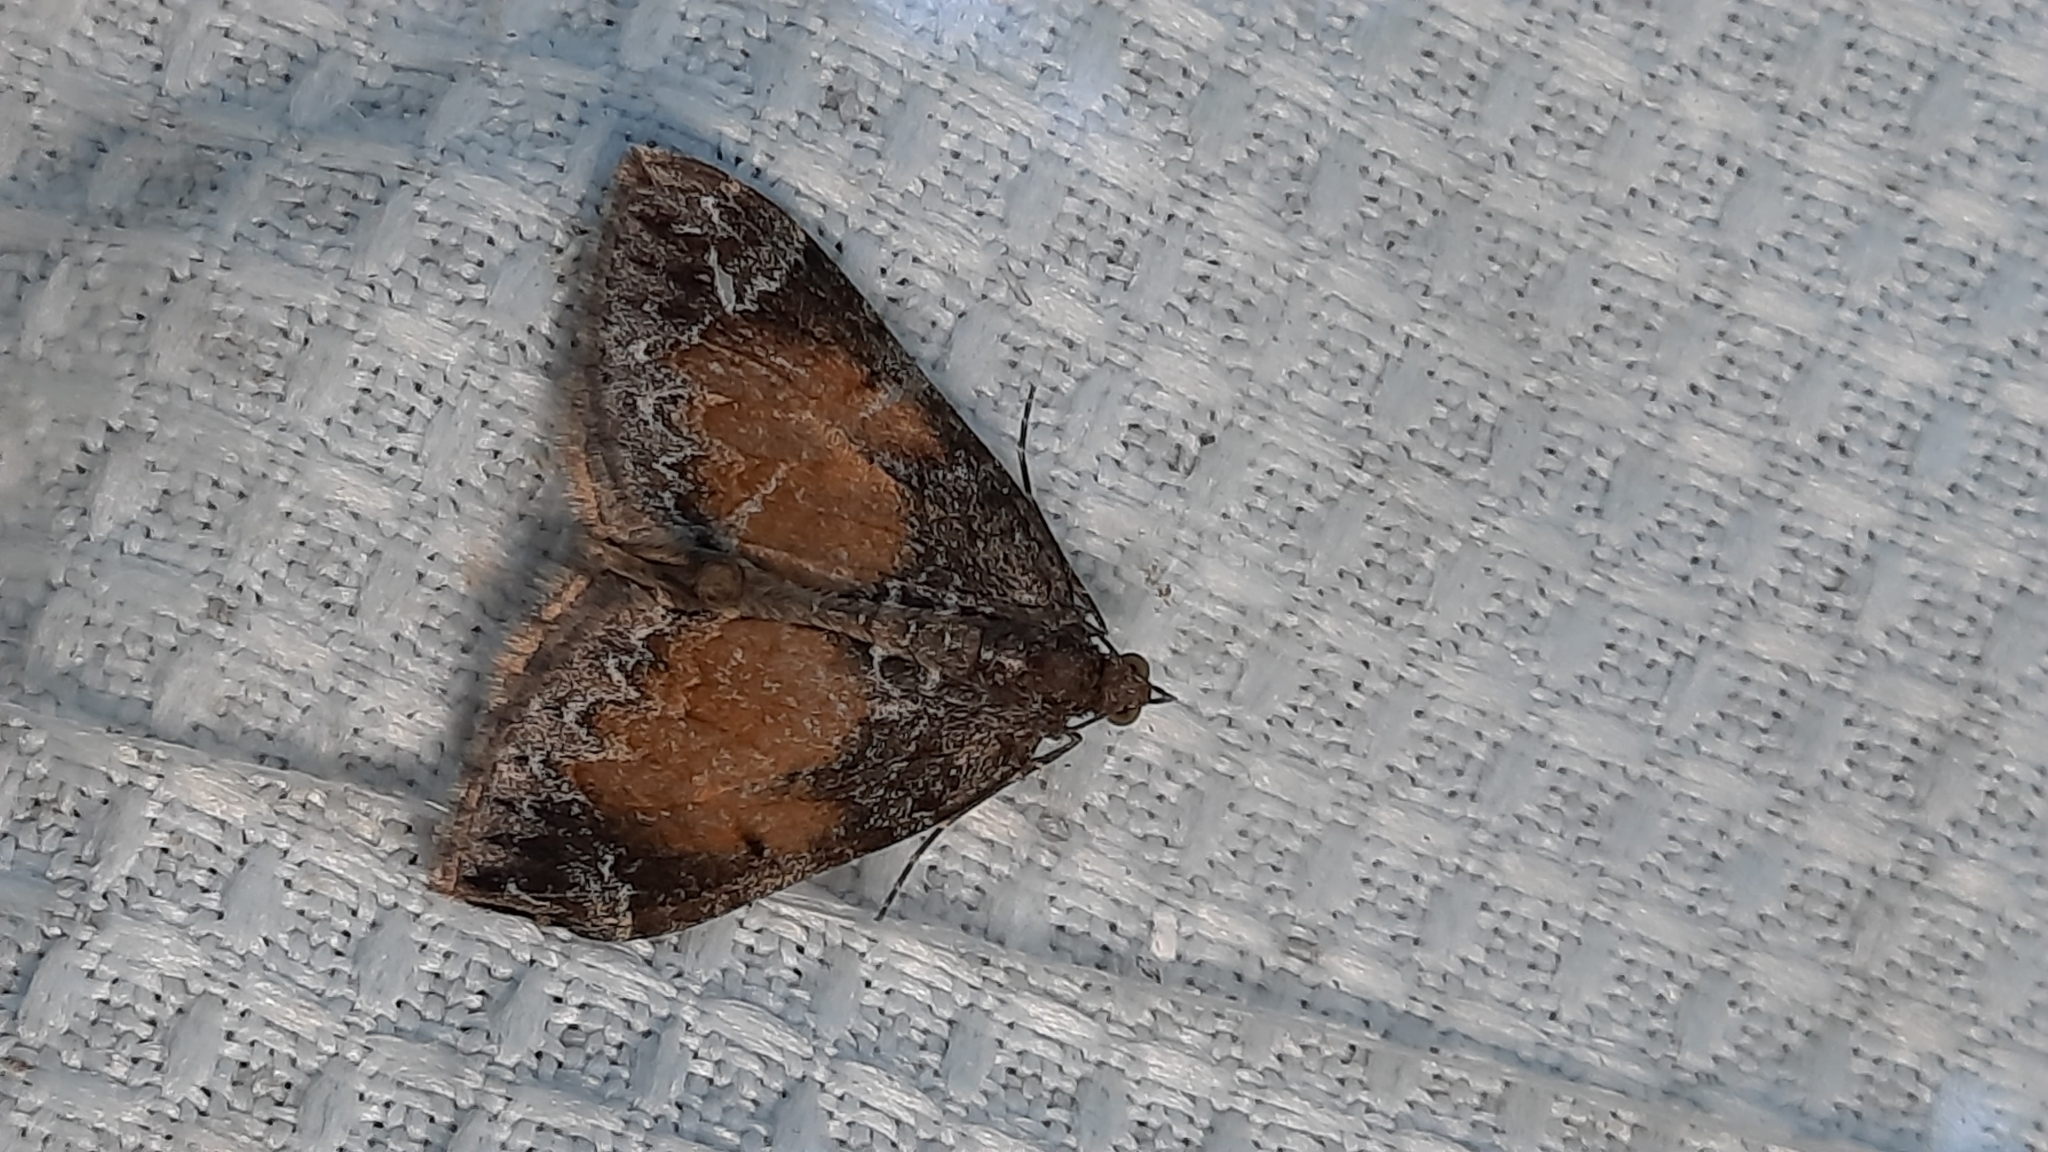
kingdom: Animalia
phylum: Arthropoda
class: Insecta
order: Lepidoptera
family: Geometridae
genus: Dysstroma
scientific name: Dysstroma truncata
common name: Common marbled carpet
